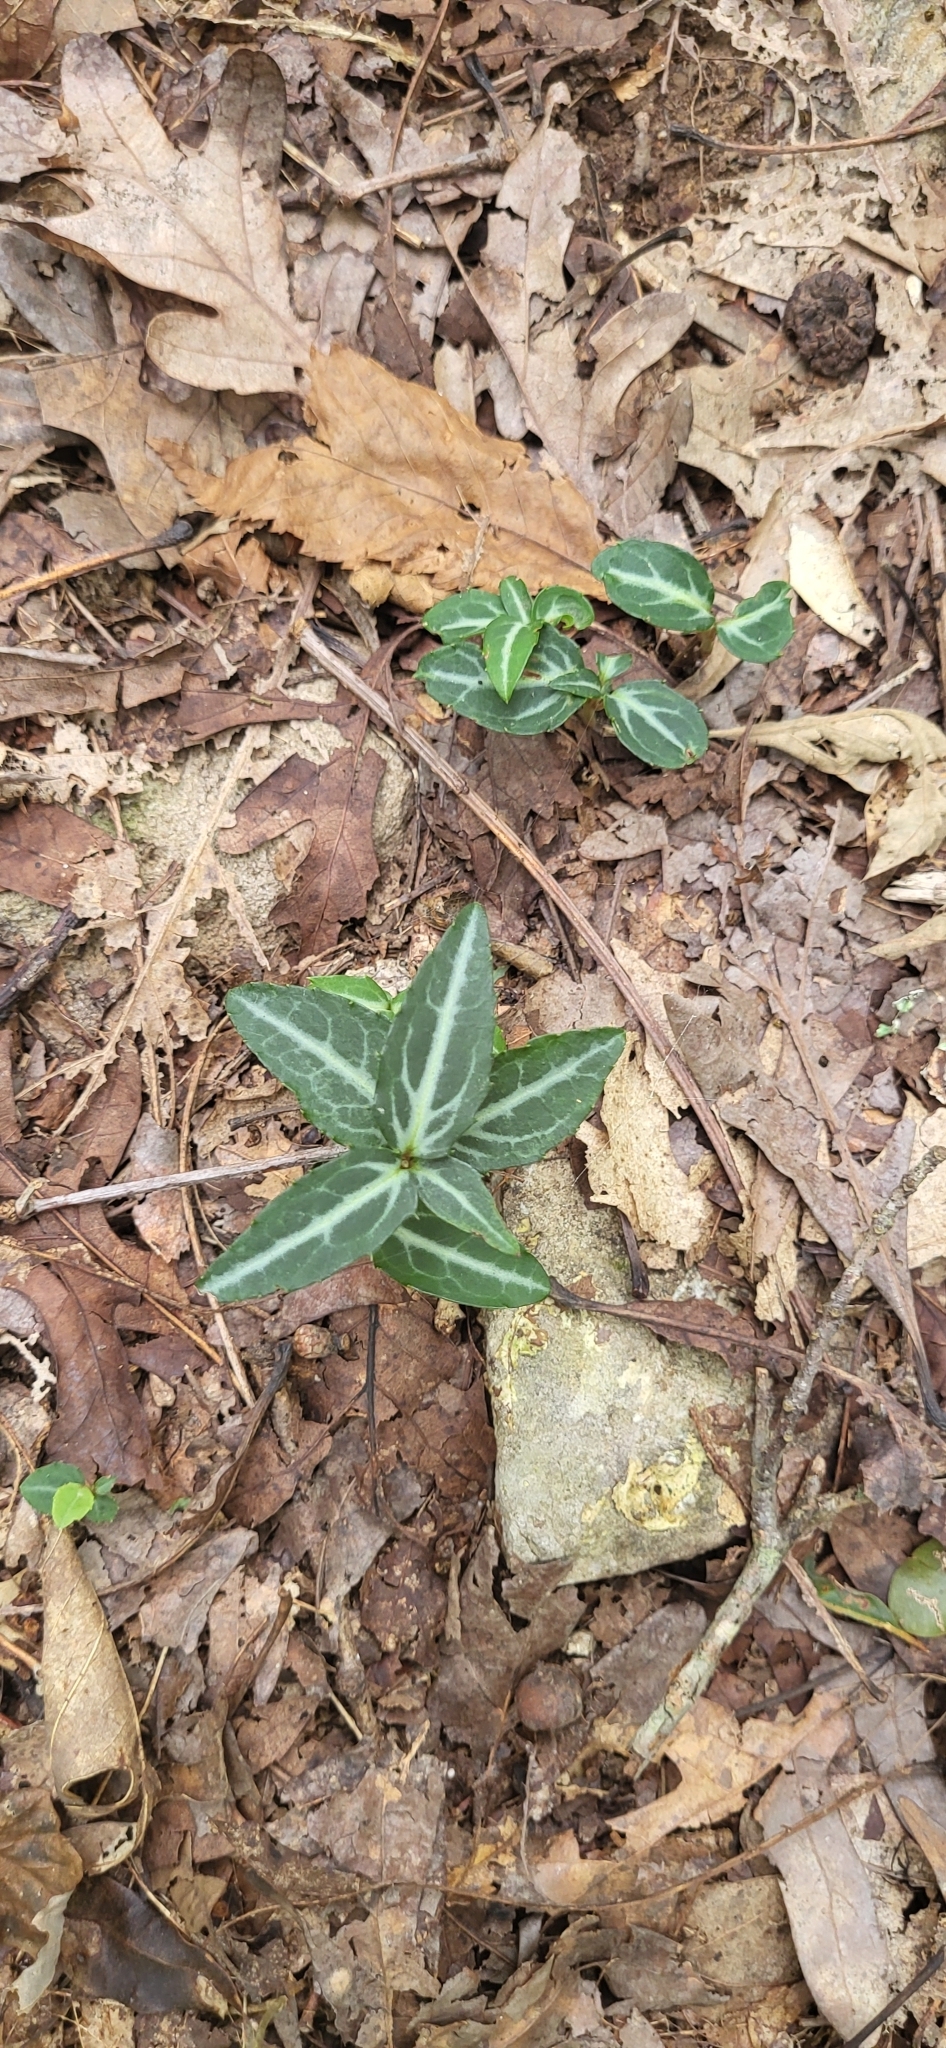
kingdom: Plantae
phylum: Tracheophyta
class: Magnoliopsida
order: Ericales
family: Ericaceae
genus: Chimaphila
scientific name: Chimaphila maculata
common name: Spotted pipsissewa
